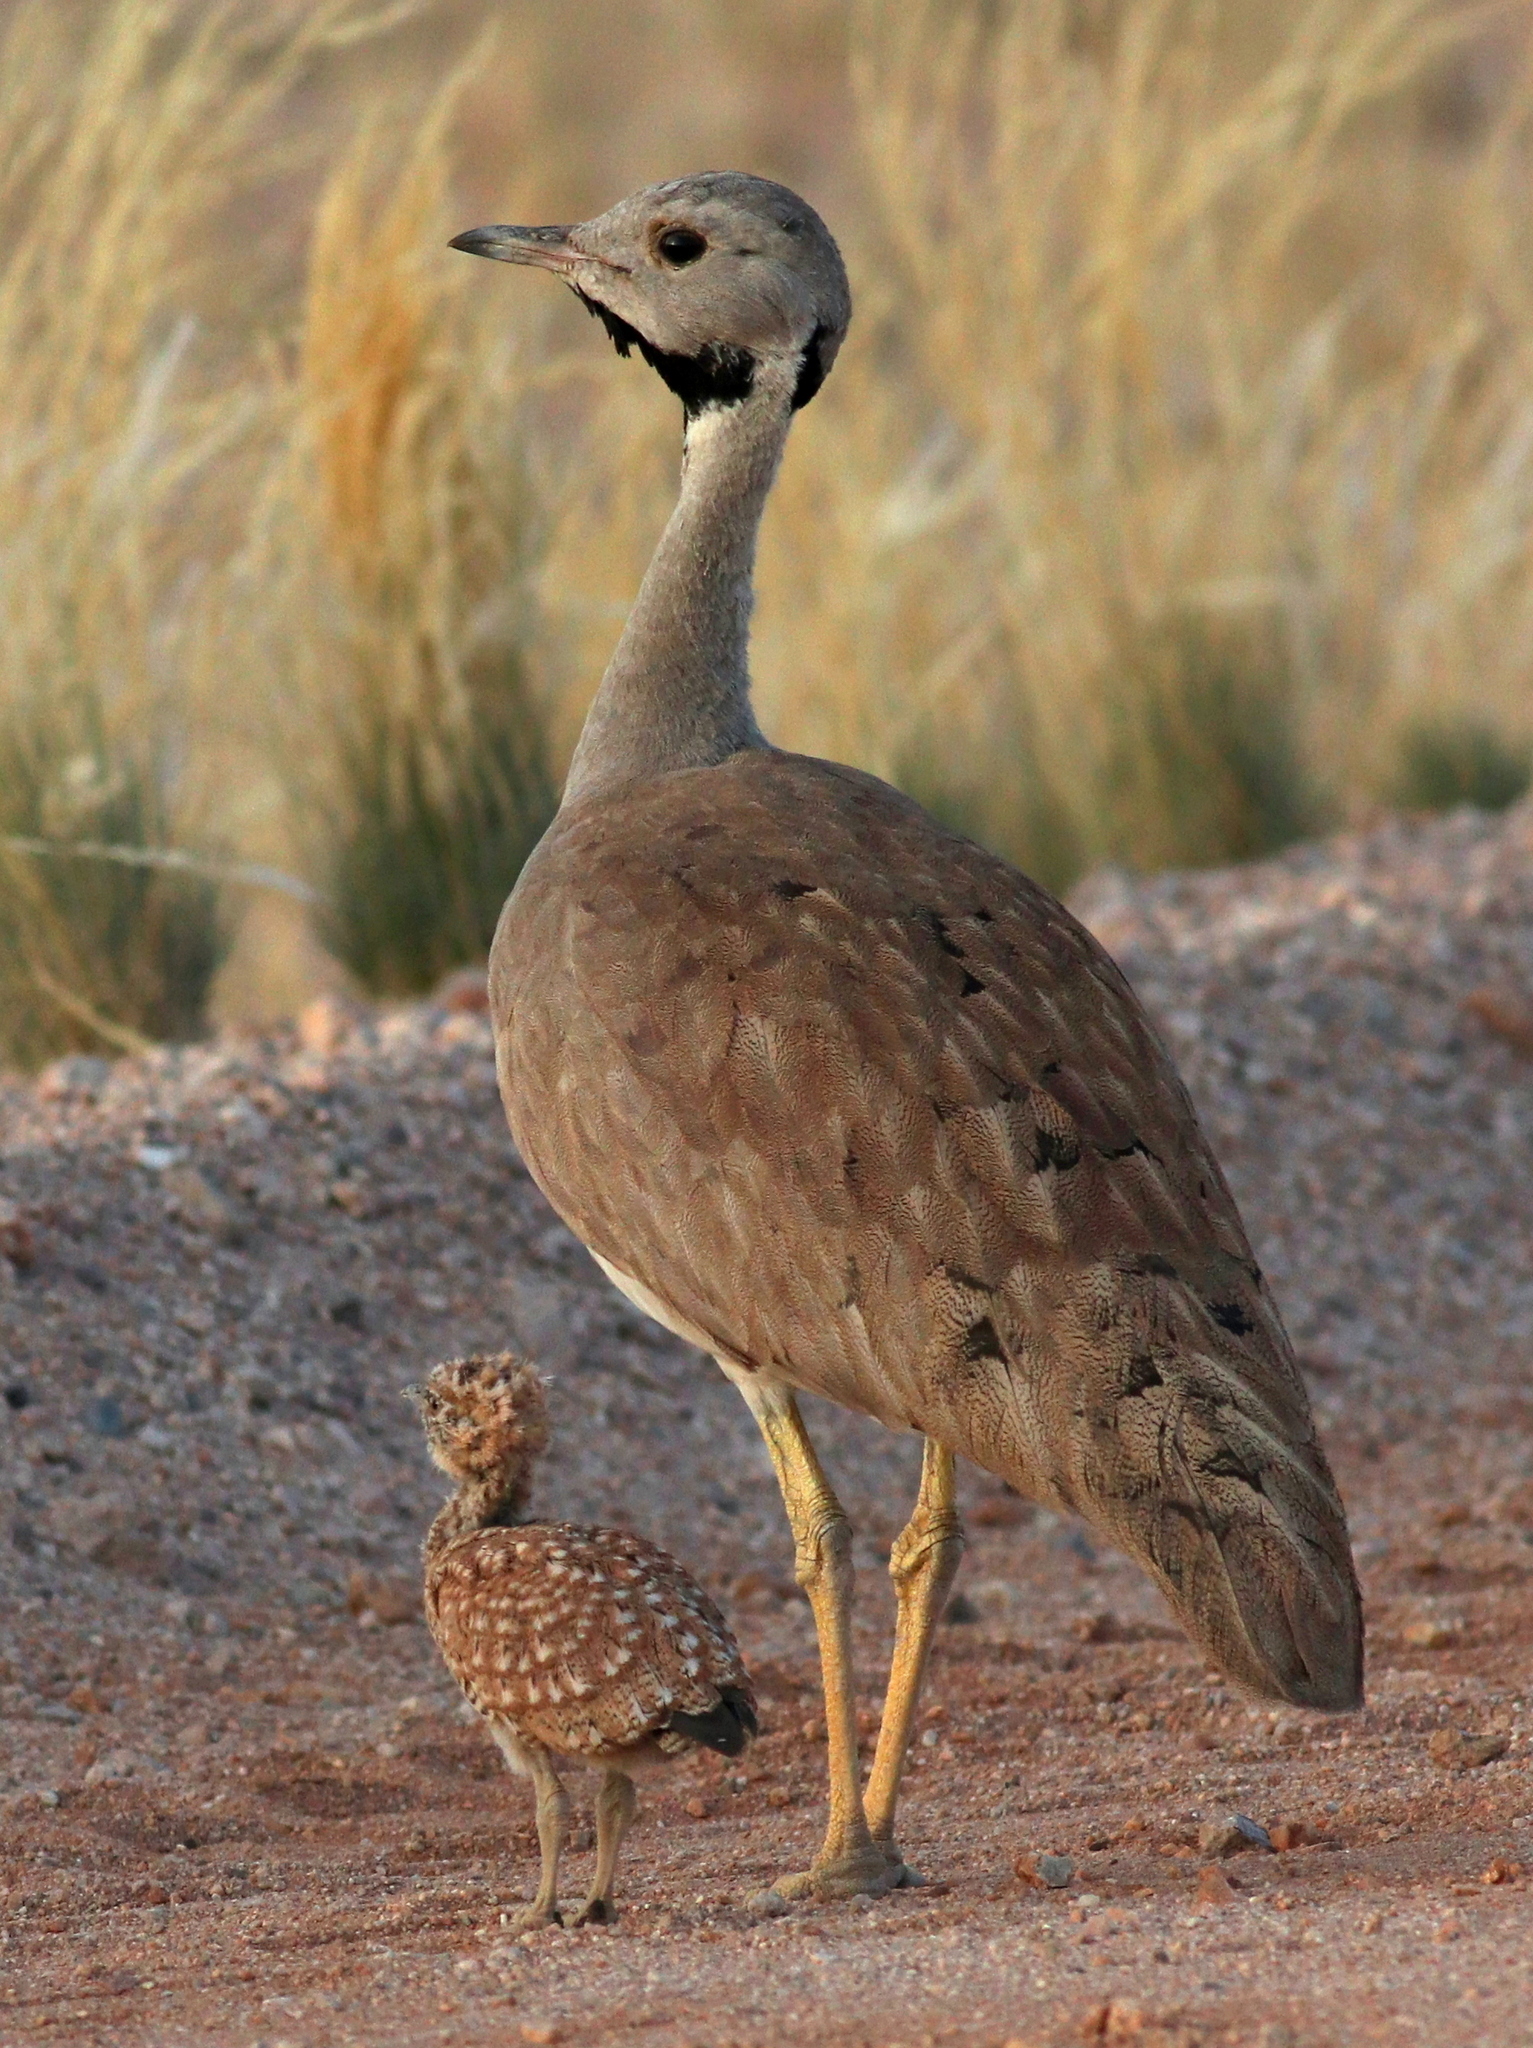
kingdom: Animalia
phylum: Chordata
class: Aves
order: Otidiformes
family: Otididae
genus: Eupodotis
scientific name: Eupodotis vigorsii
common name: Karoo korhaan
